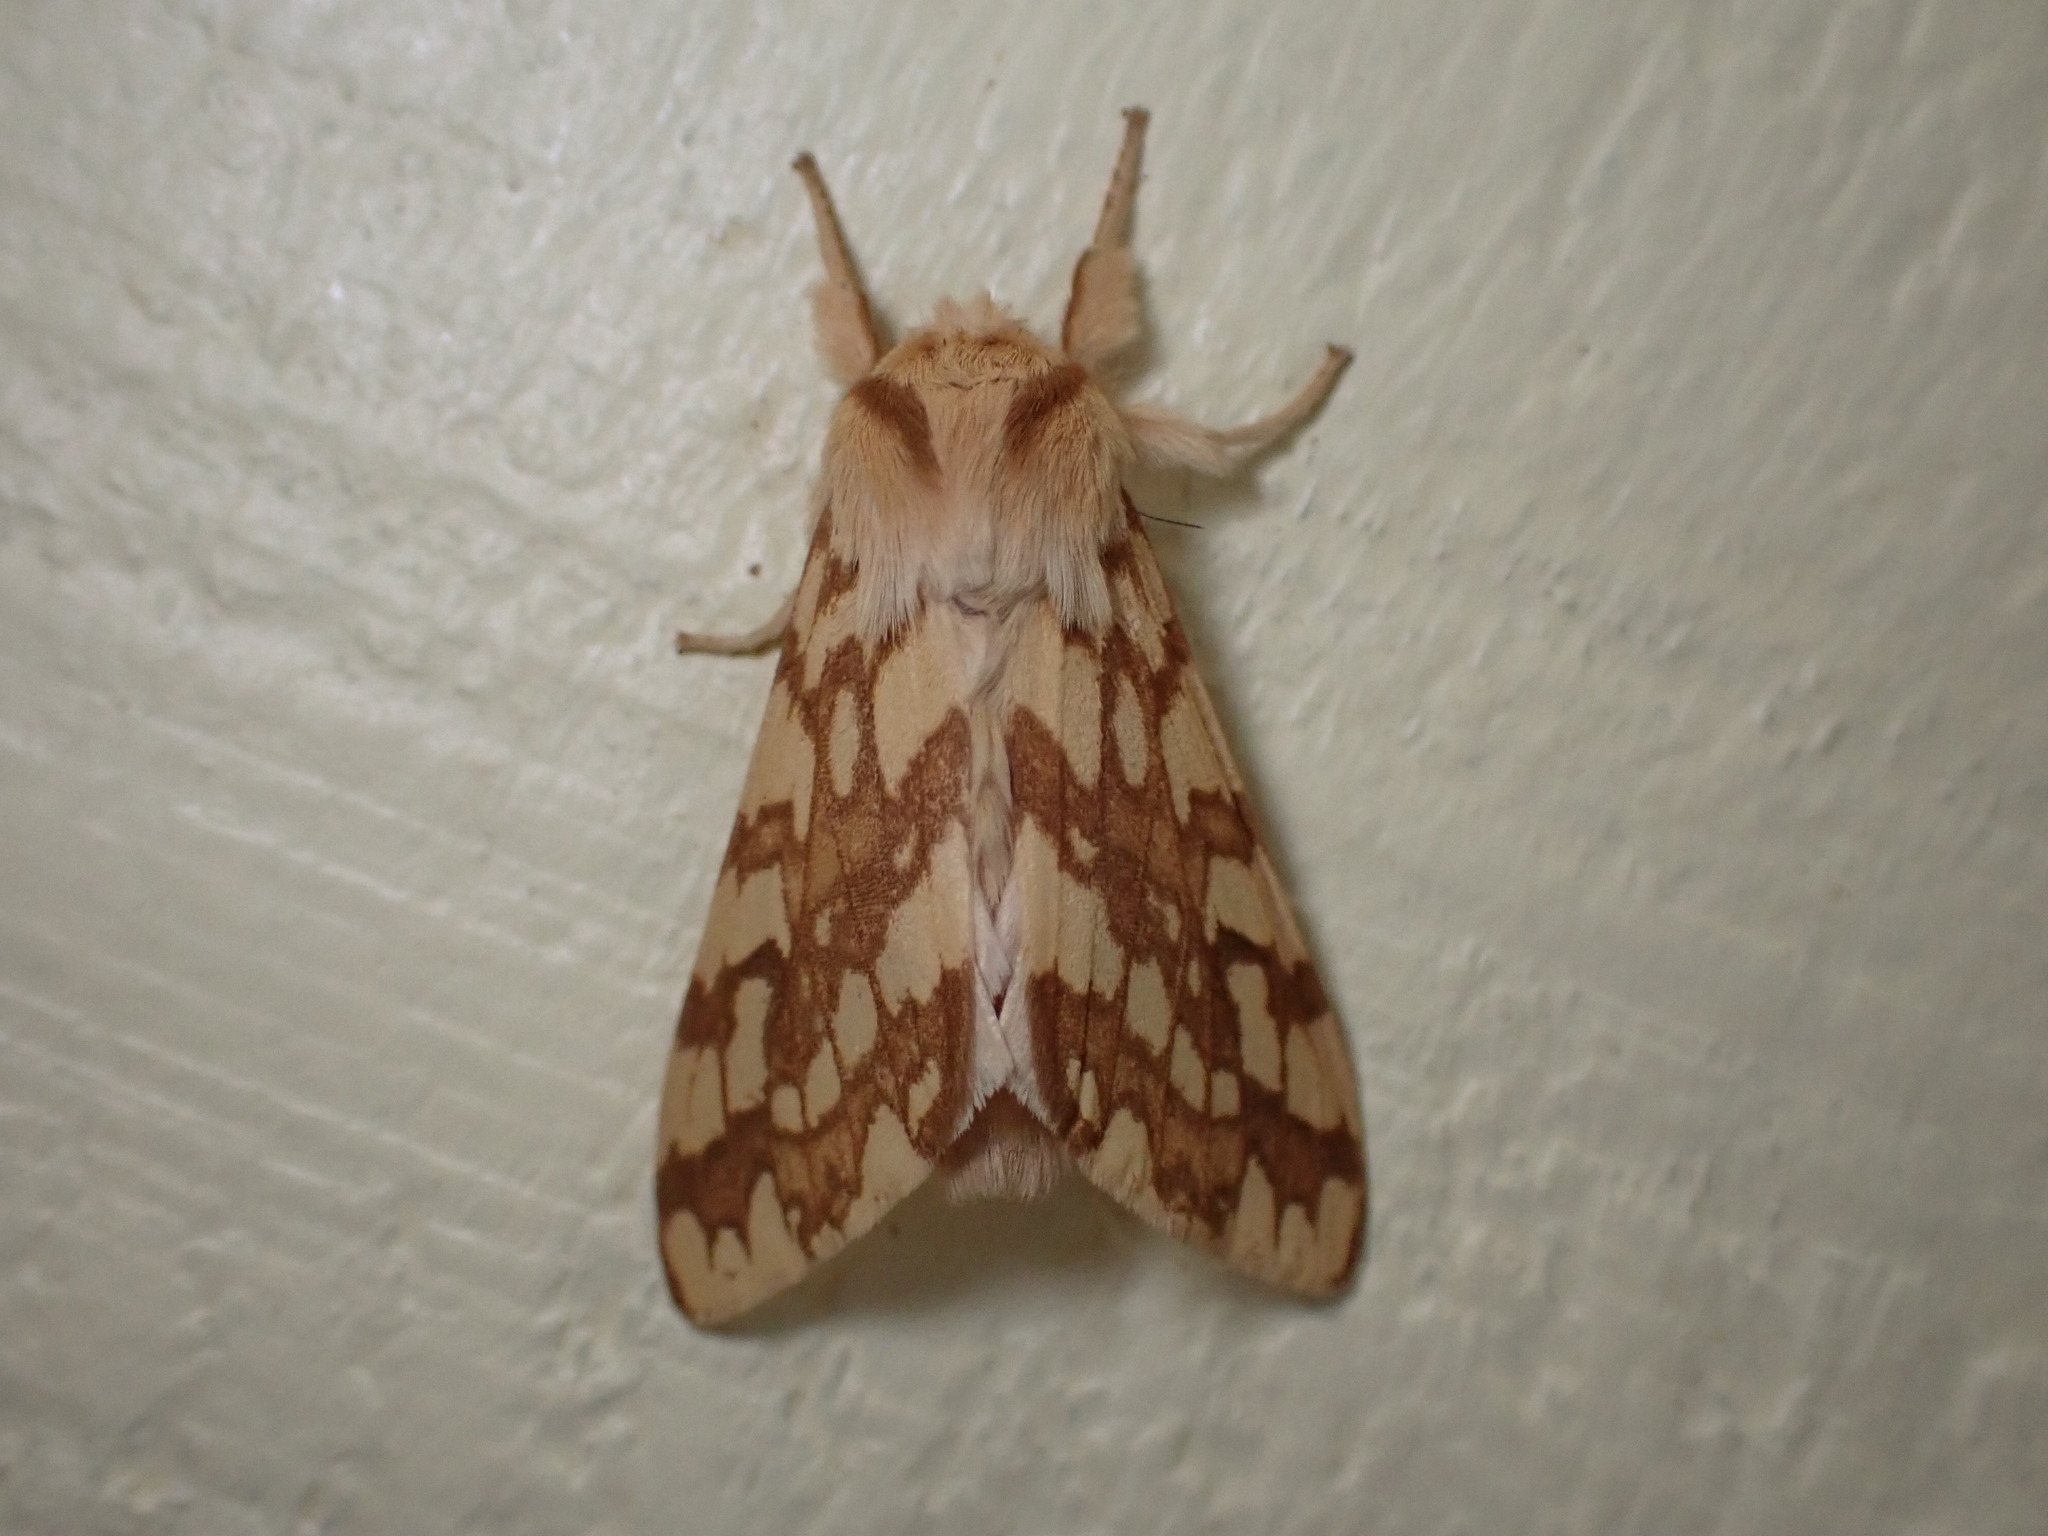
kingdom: Animalia
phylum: Arthropoda
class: Insecta
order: Lepidoptera
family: Erebidae
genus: Lophocampa
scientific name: Lophocampa maculata
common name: Spotted tussock moth
